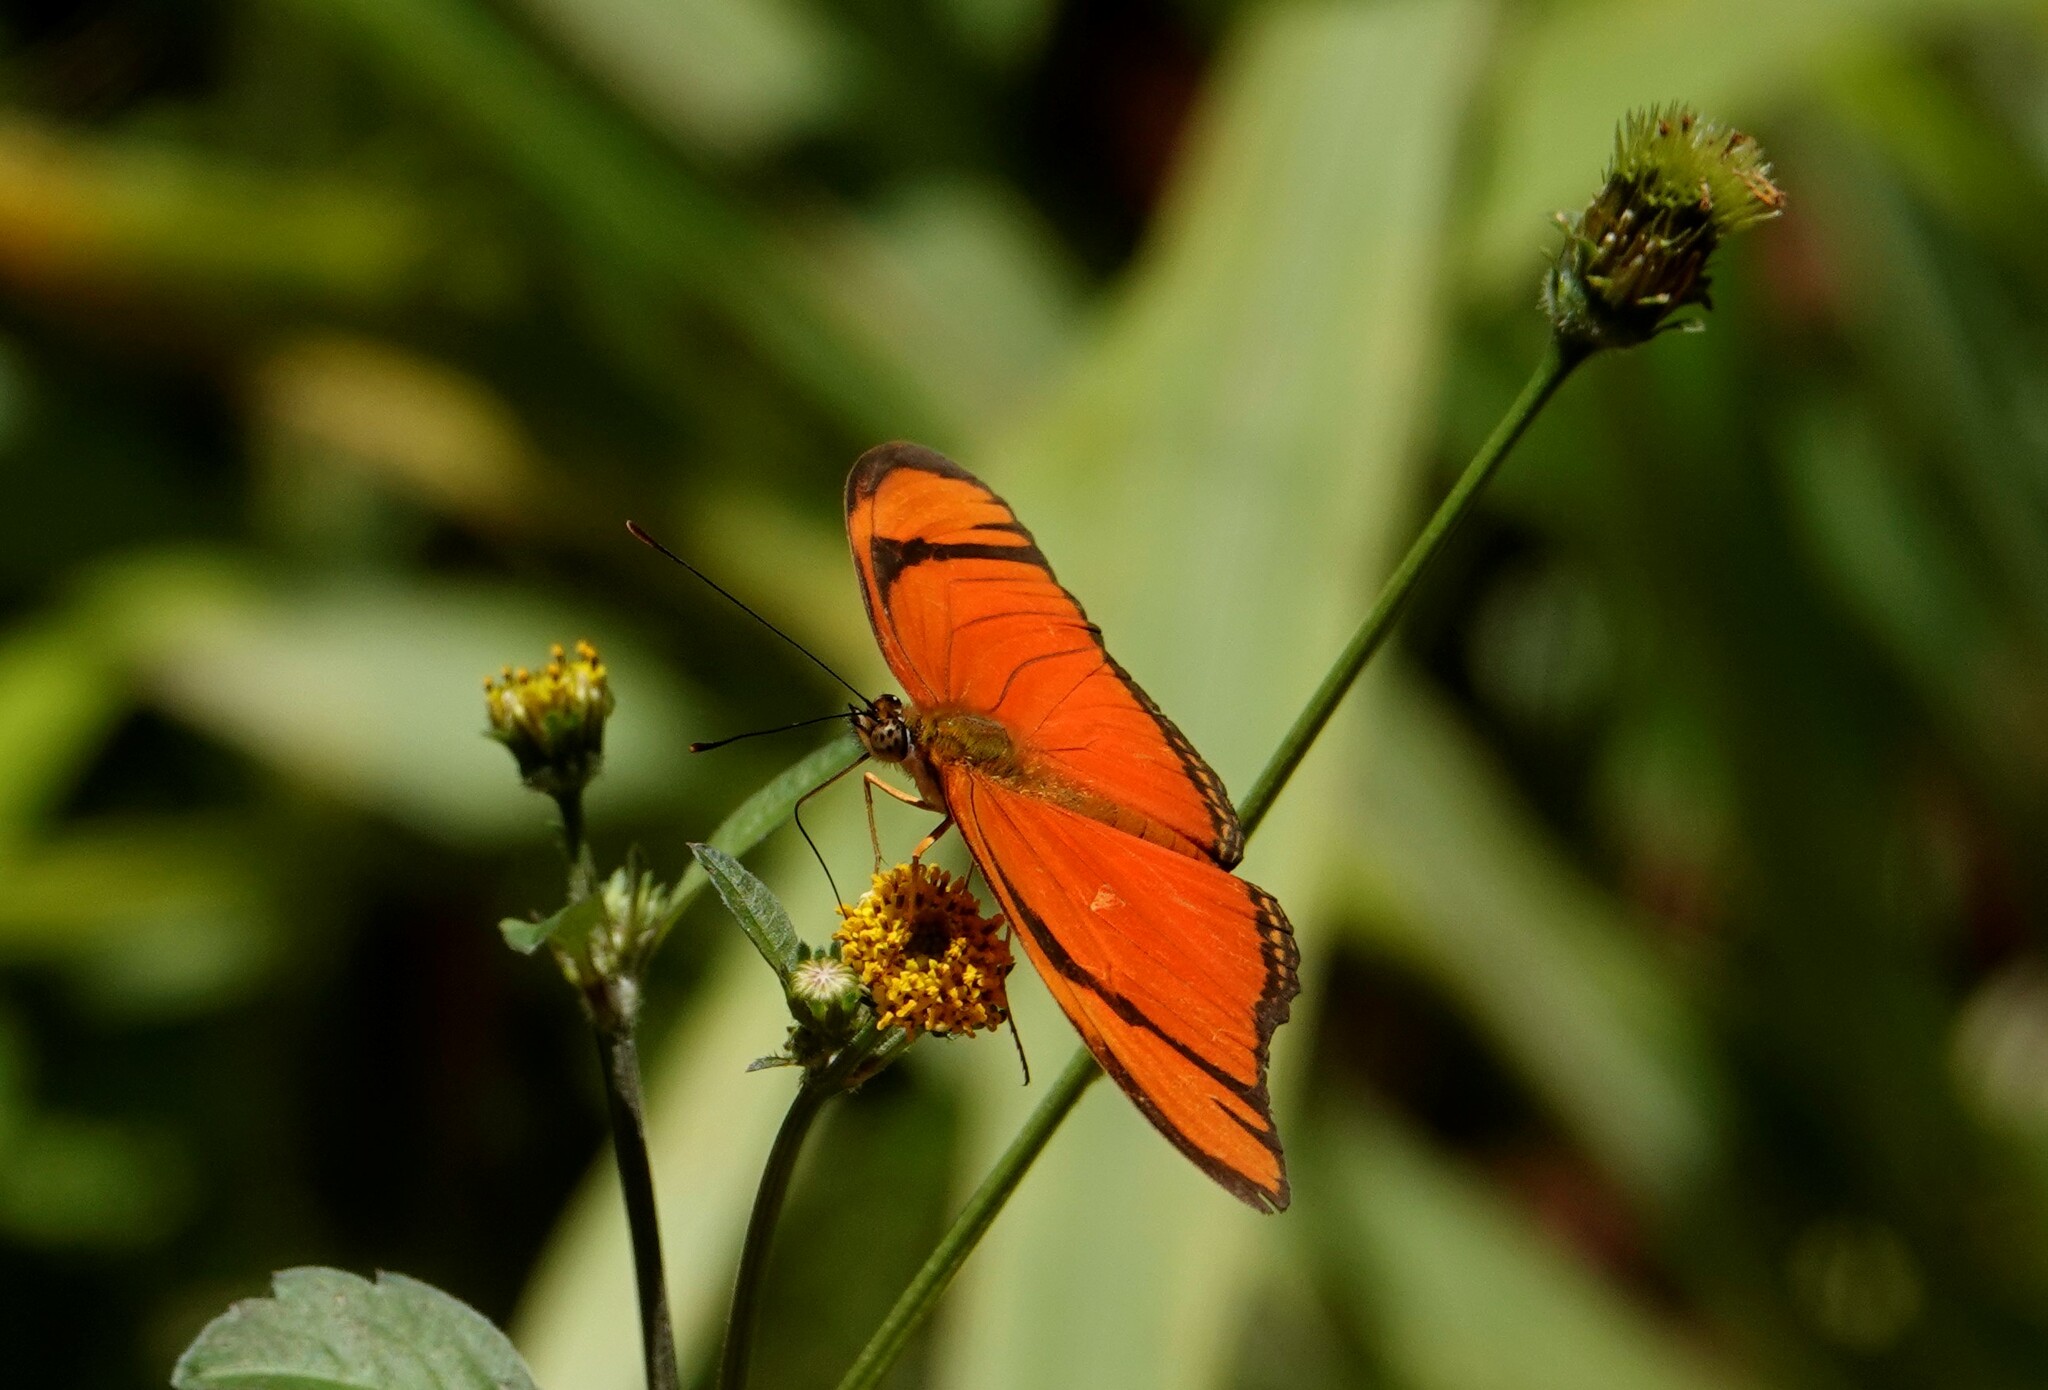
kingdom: Animalia
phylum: Arthropoda
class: Insecta
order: Lepidoptera
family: Nymphalidae
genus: Dryas
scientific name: Dryas iulia
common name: Flambeau
